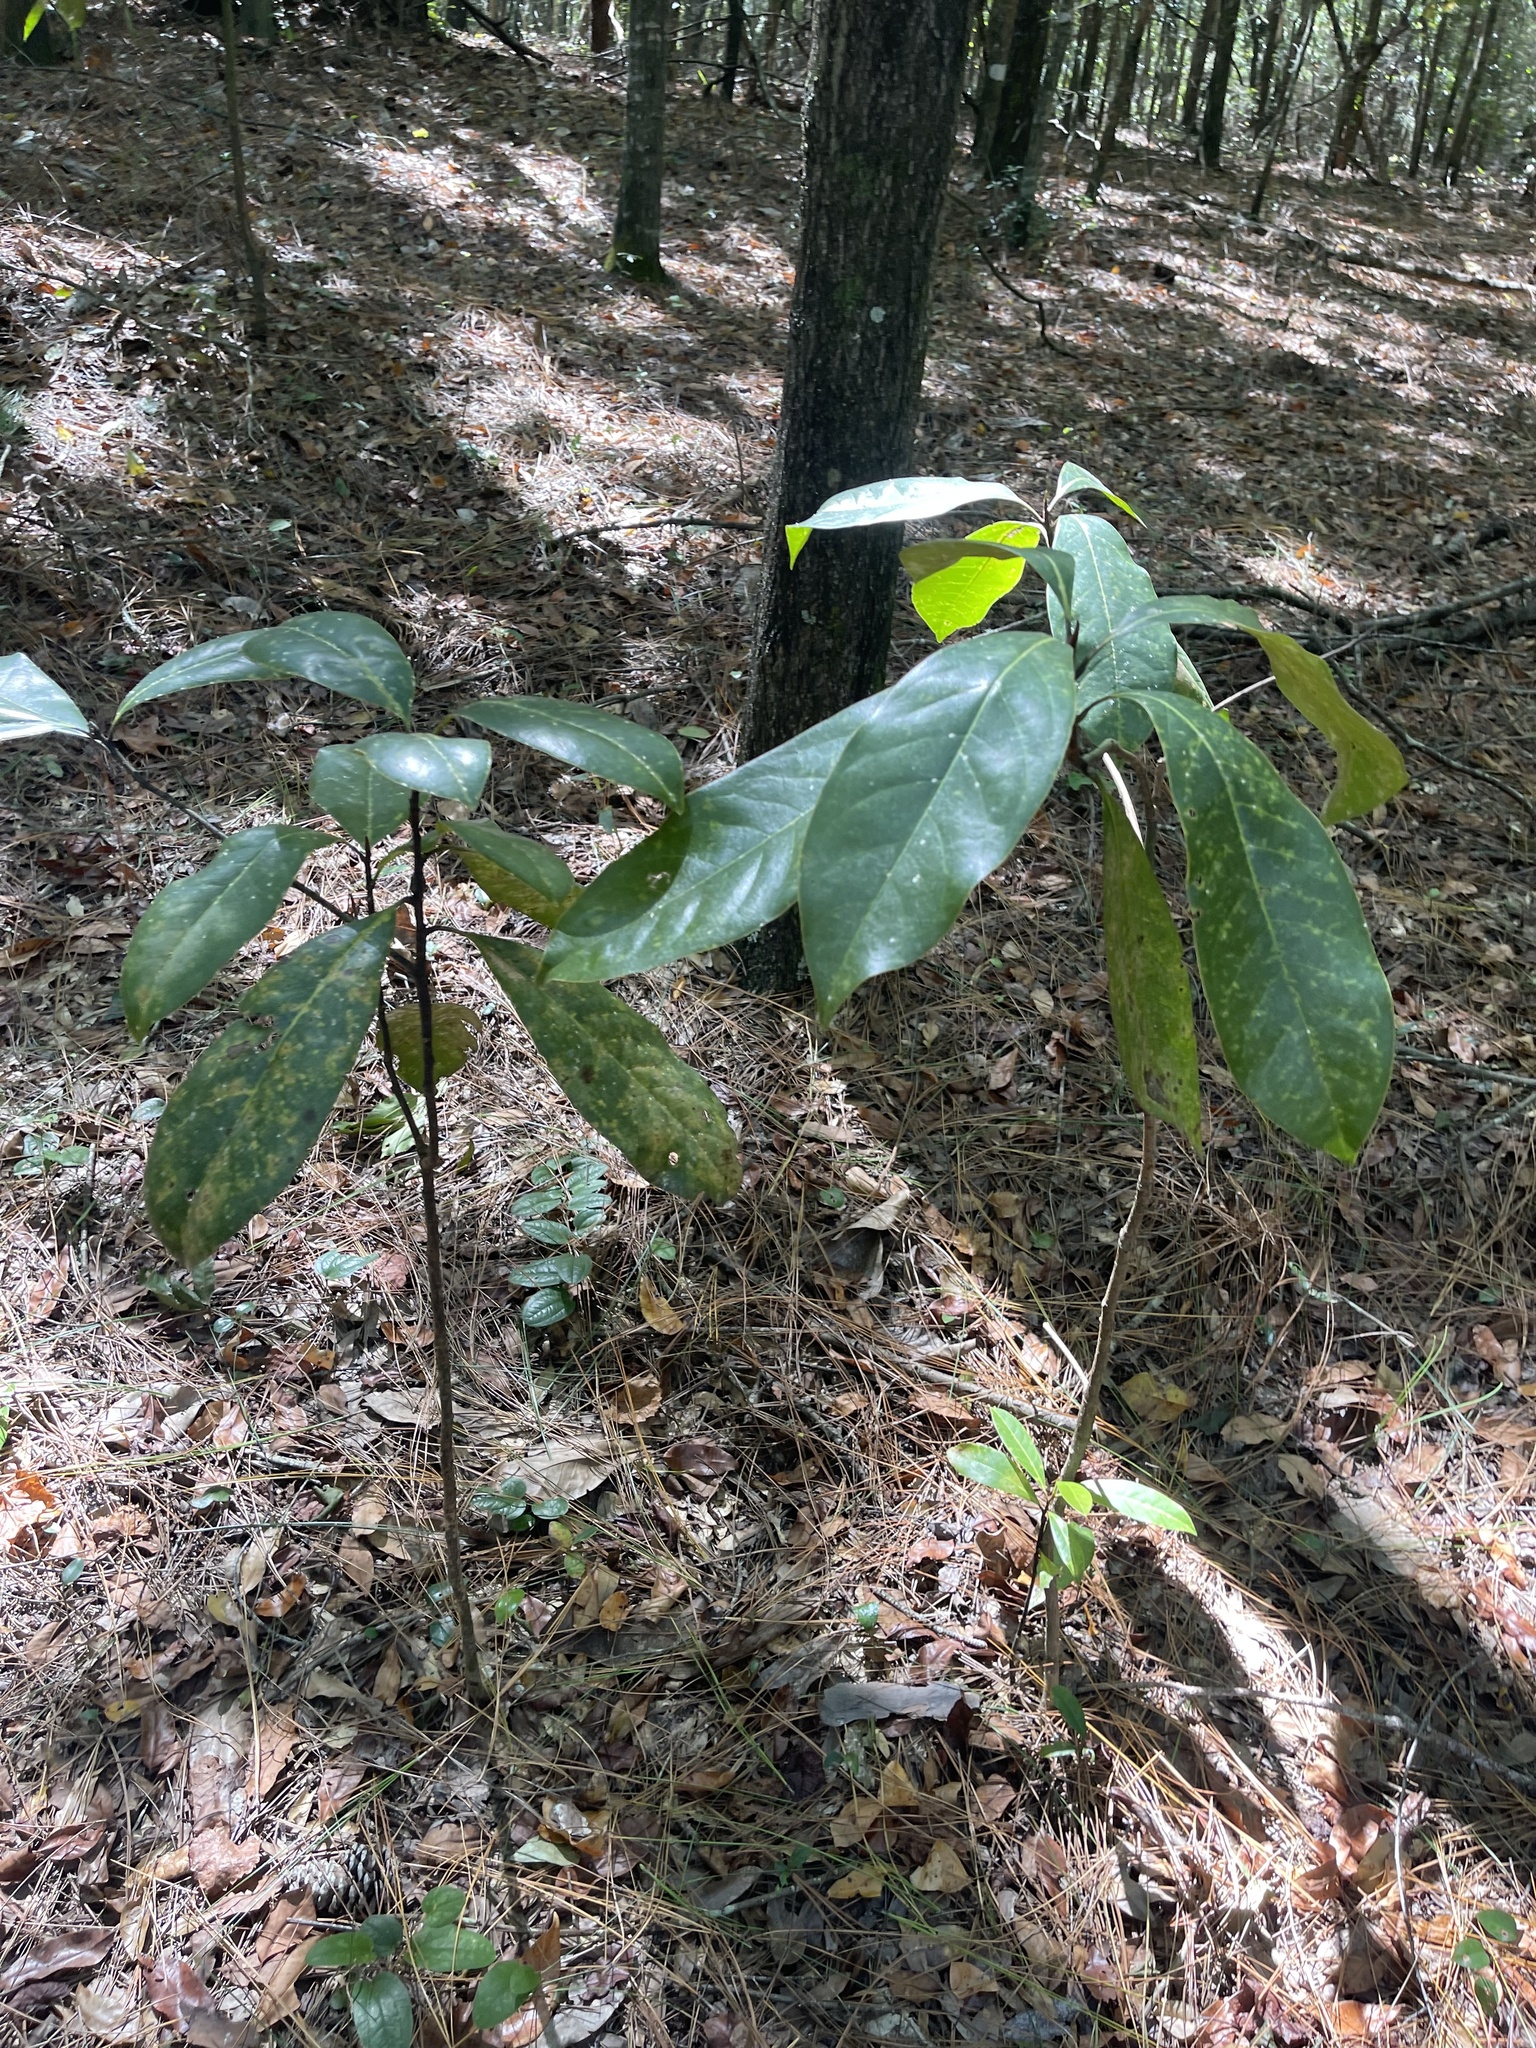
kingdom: Plantae
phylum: Tracheophyta
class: Magnoliopsida
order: Magnoliales
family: Magnoliaceae
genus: Magnolia
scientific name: Magnolia grandiflora
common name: Southern magnolia
